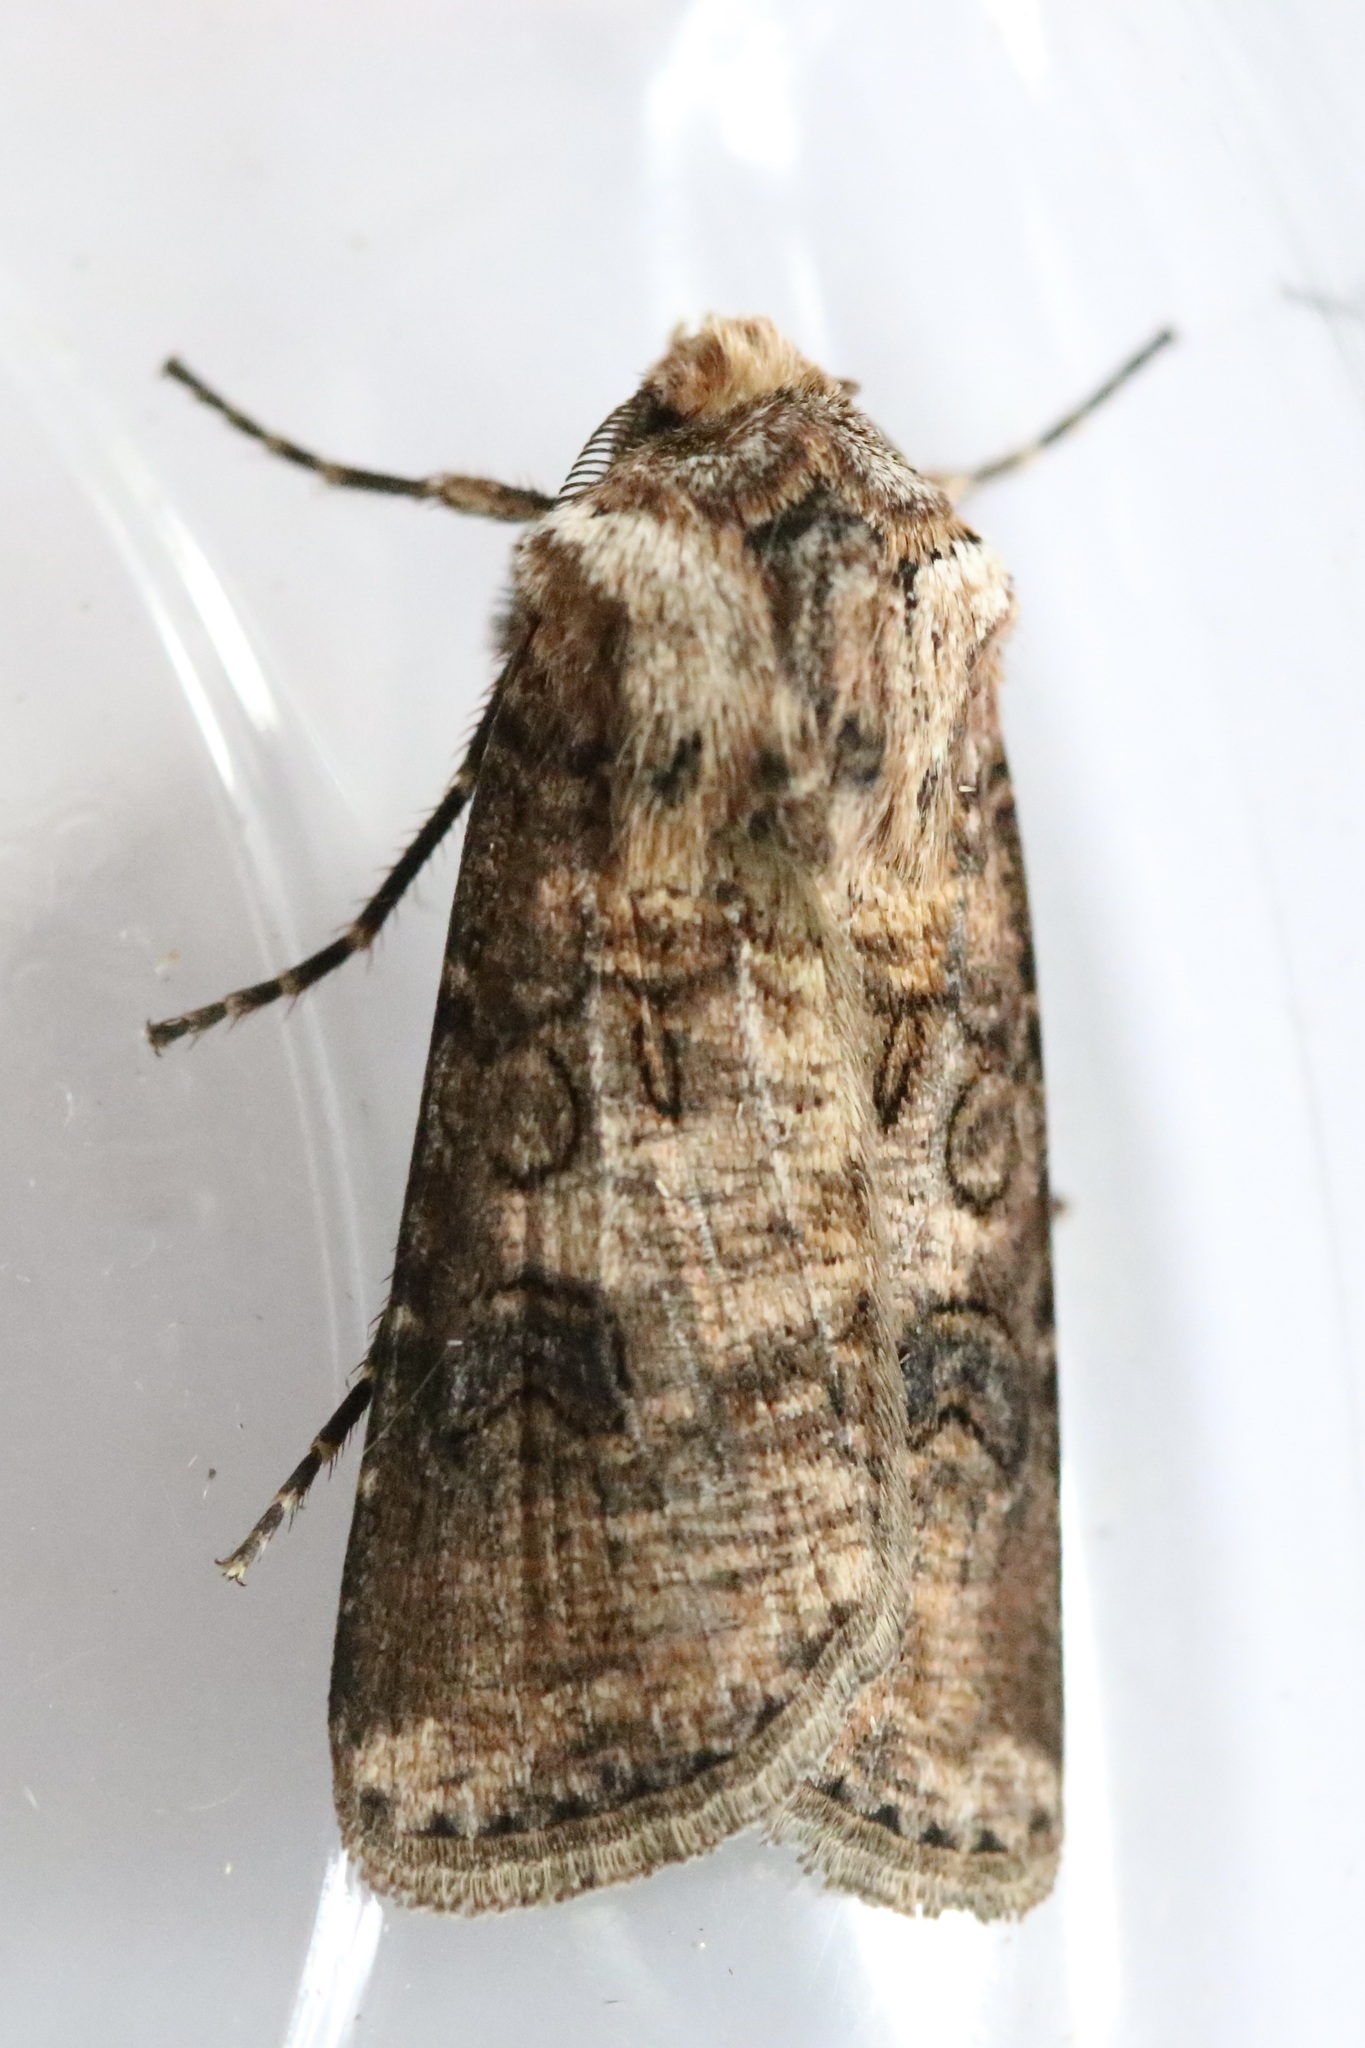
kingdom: Animalia
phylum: Arthropoda
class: Insecta
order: Lepidoptera
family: Noctuidae
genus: Agrotis
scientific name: Agrotis clavis
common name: Heart and club
